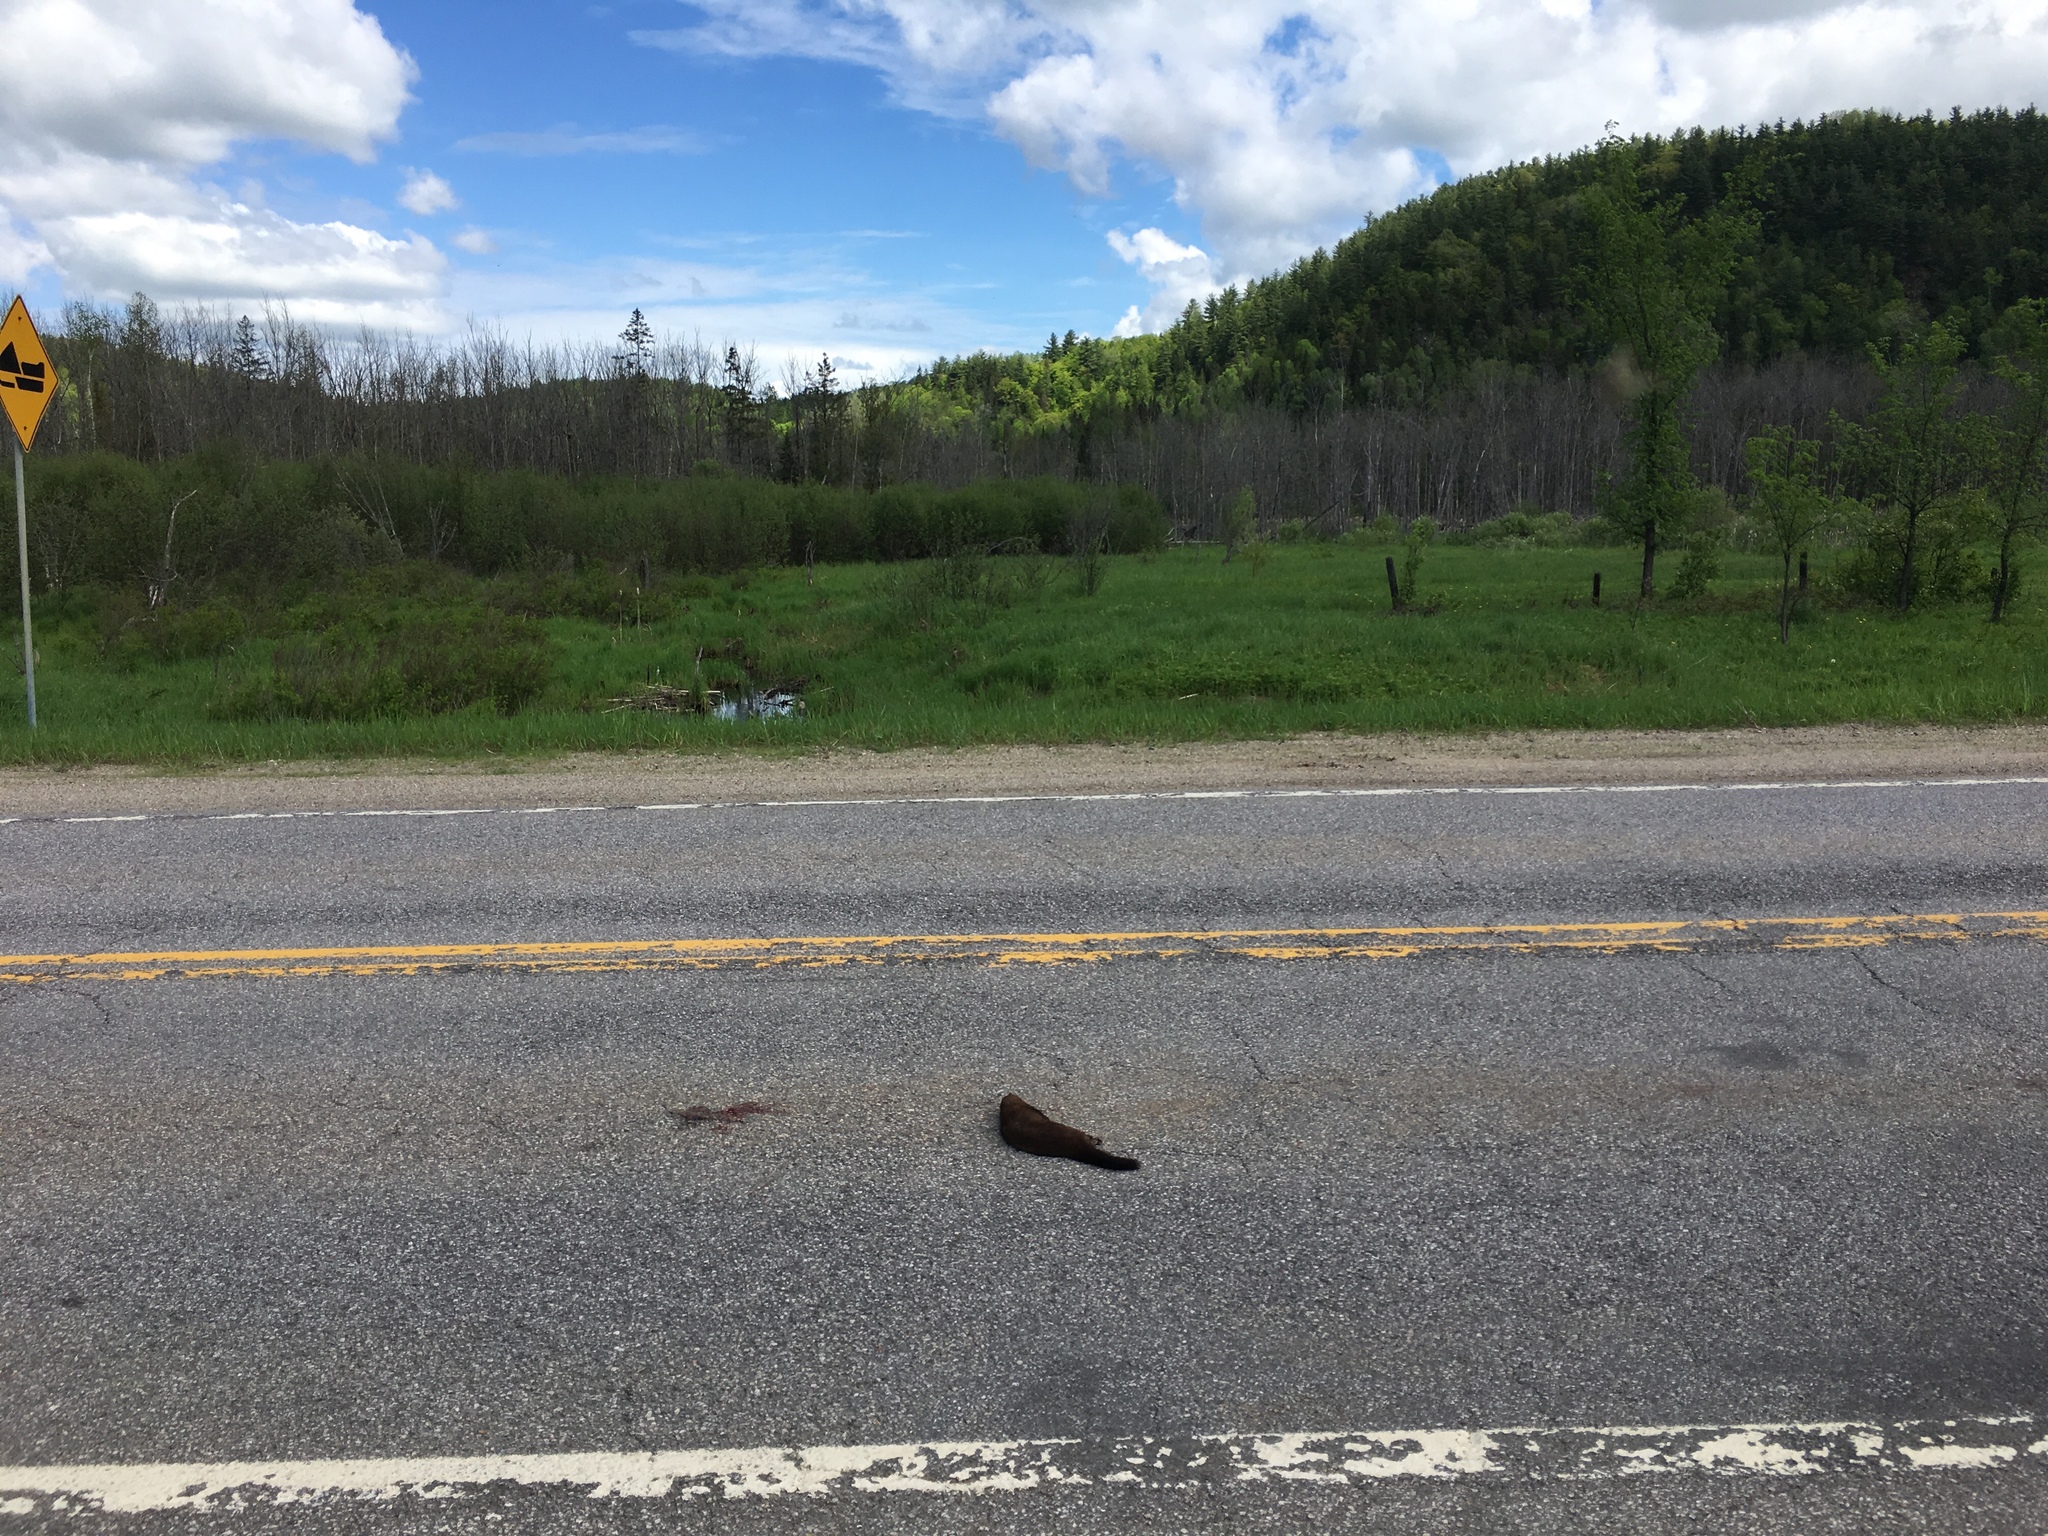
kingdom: Animalia
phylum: Chordata
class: Mammalia
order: Carnivora
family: Mustelidae
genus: Mustela
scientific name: Mustela
